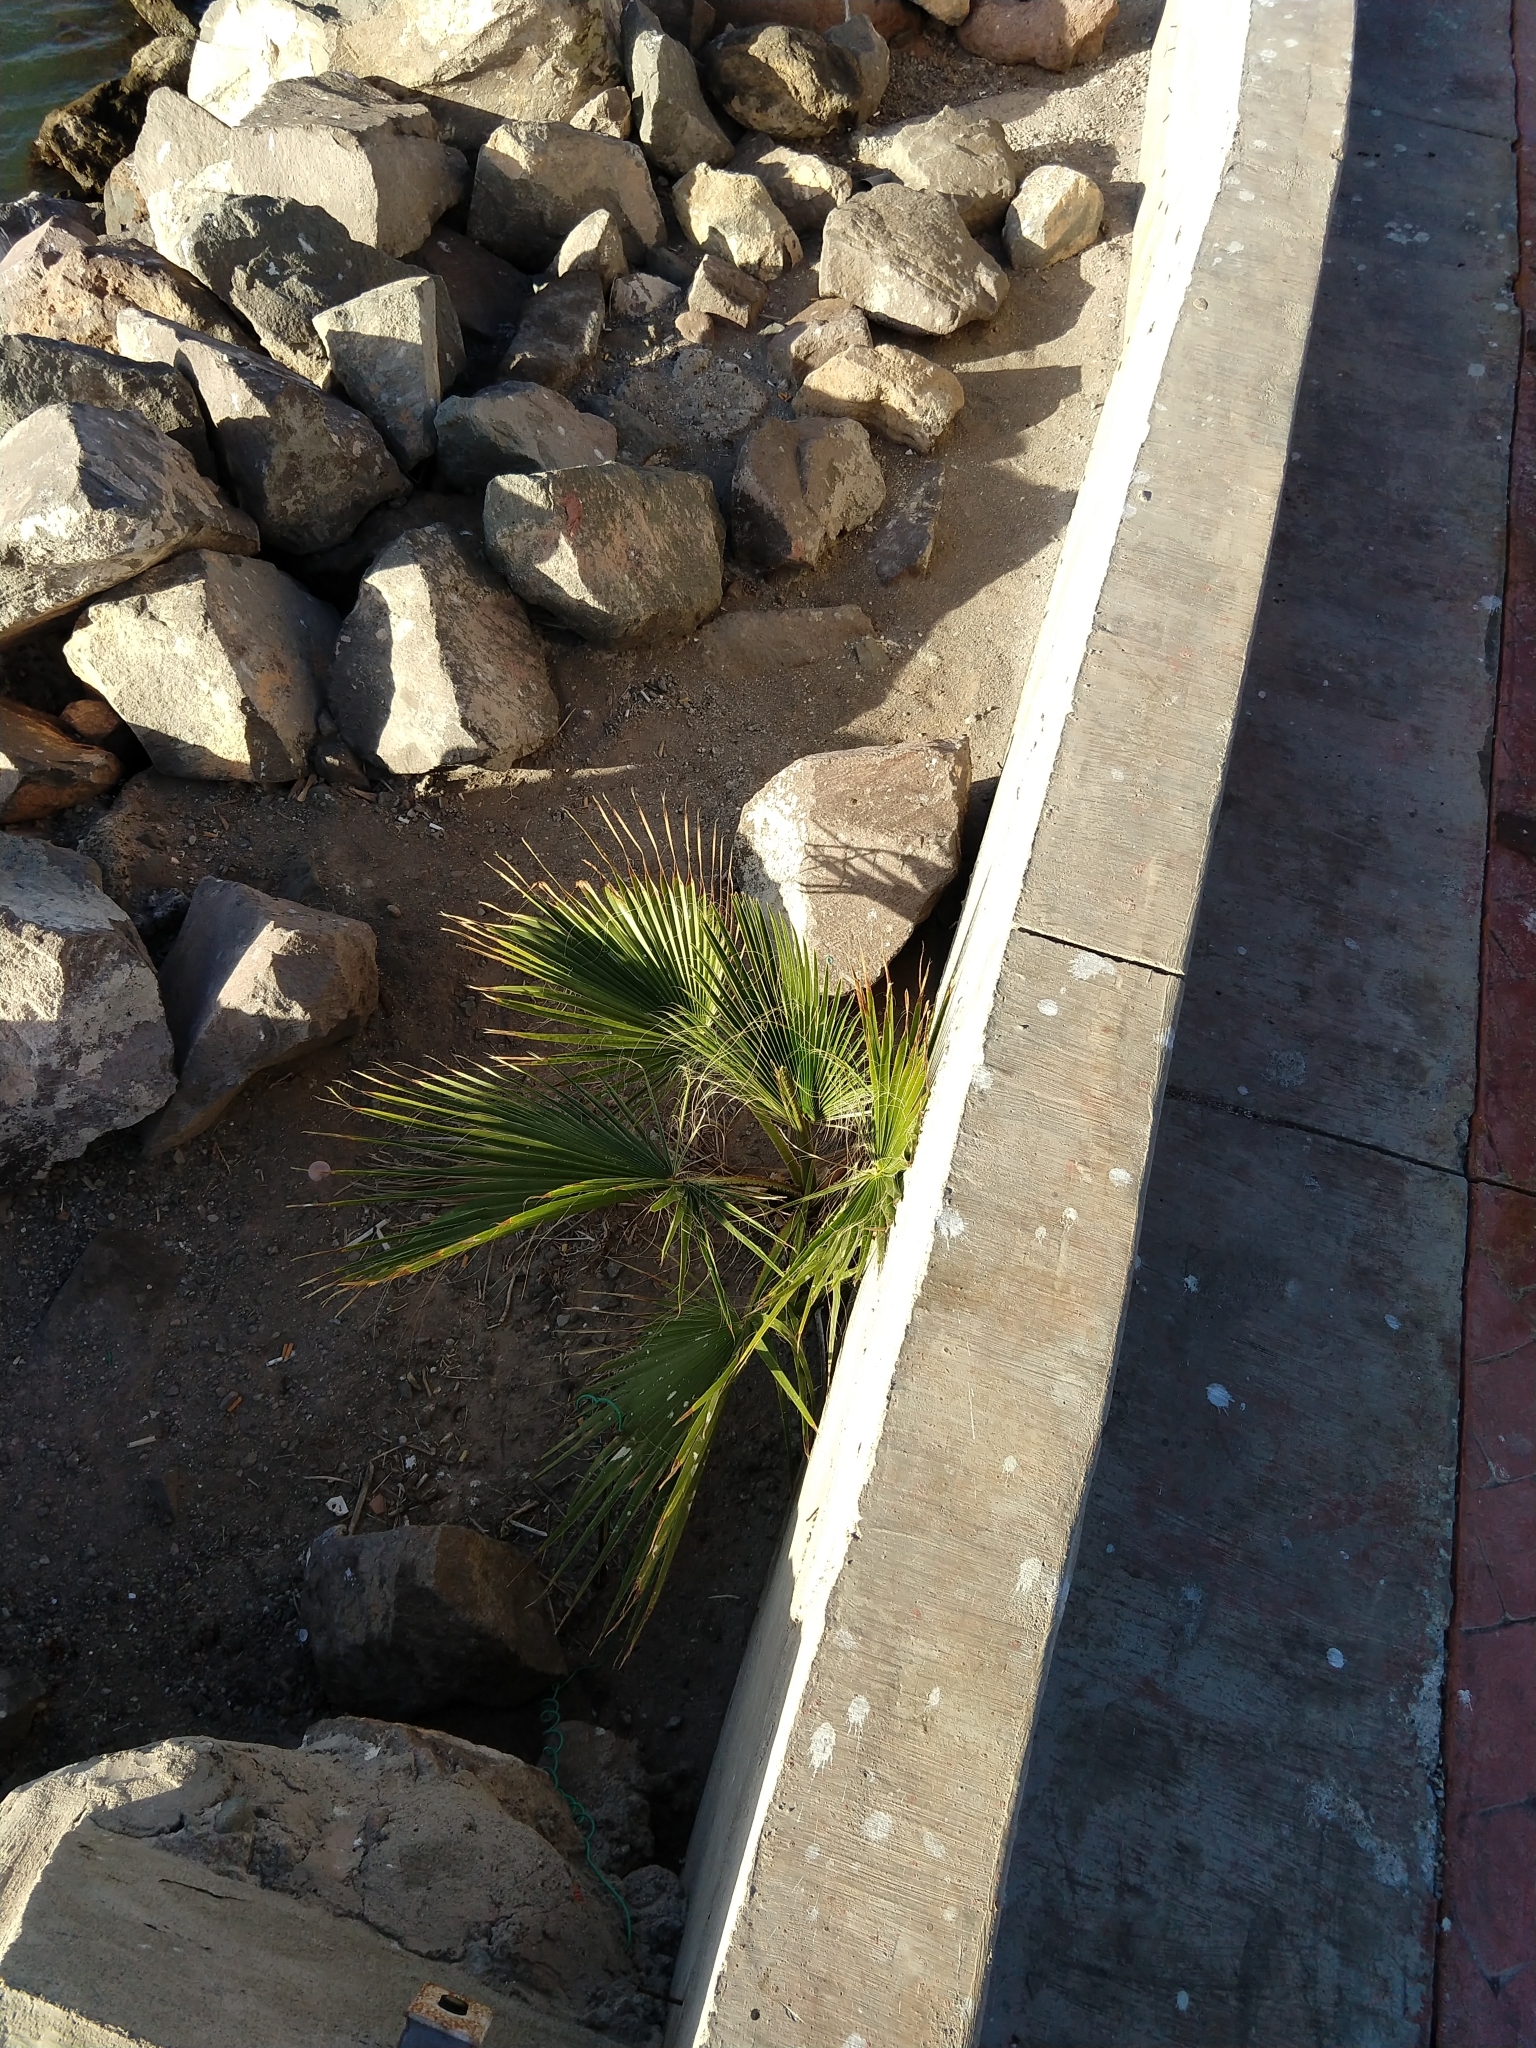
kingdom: Plantae
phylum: Tracheophyta
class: Liliopsida
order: Arecales
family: Arecaceae
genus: Washingtonia
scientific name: Washingtonia robusta
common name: Mexican fan palm
